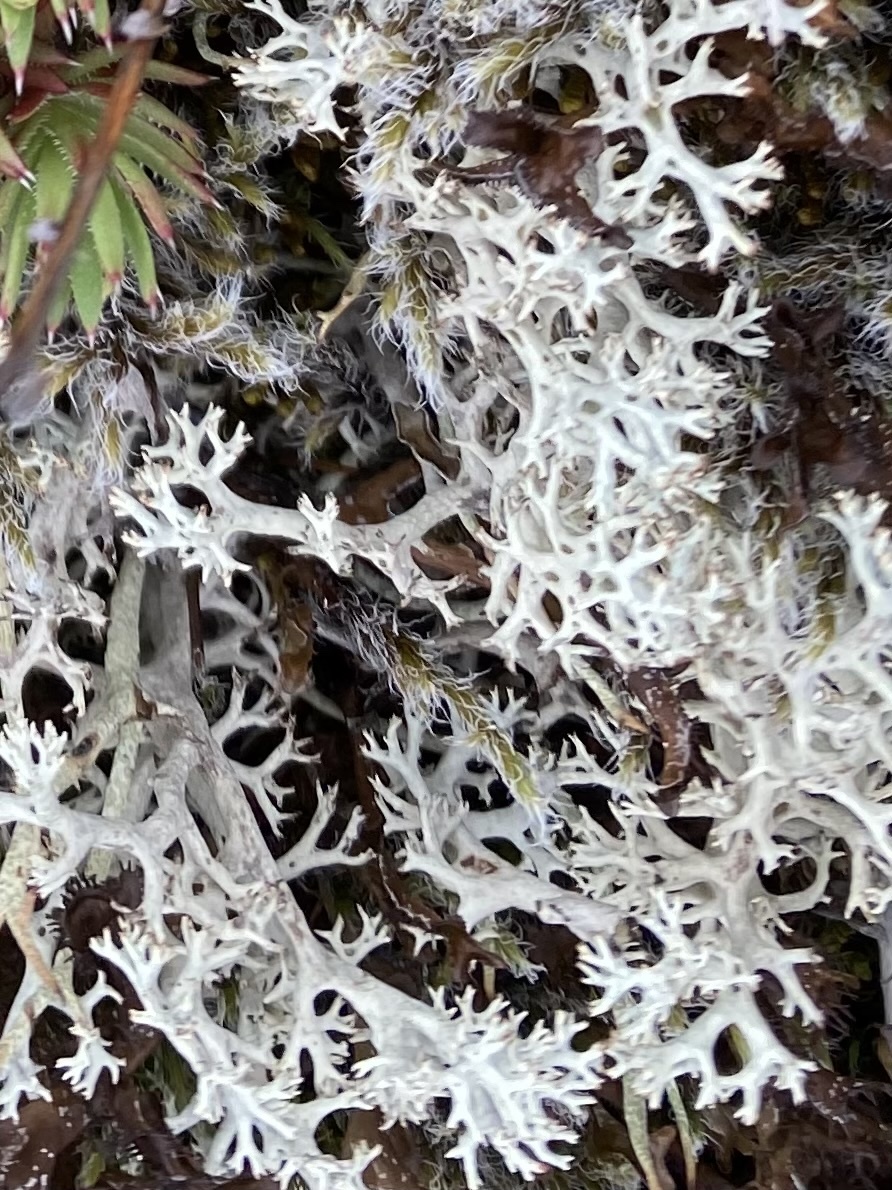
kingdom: Fungi
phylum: Ascomycota
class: Lecanoromycetes
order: Lecanorales
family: Cladoniaceae
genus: Cladonia
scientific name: Cladonia
